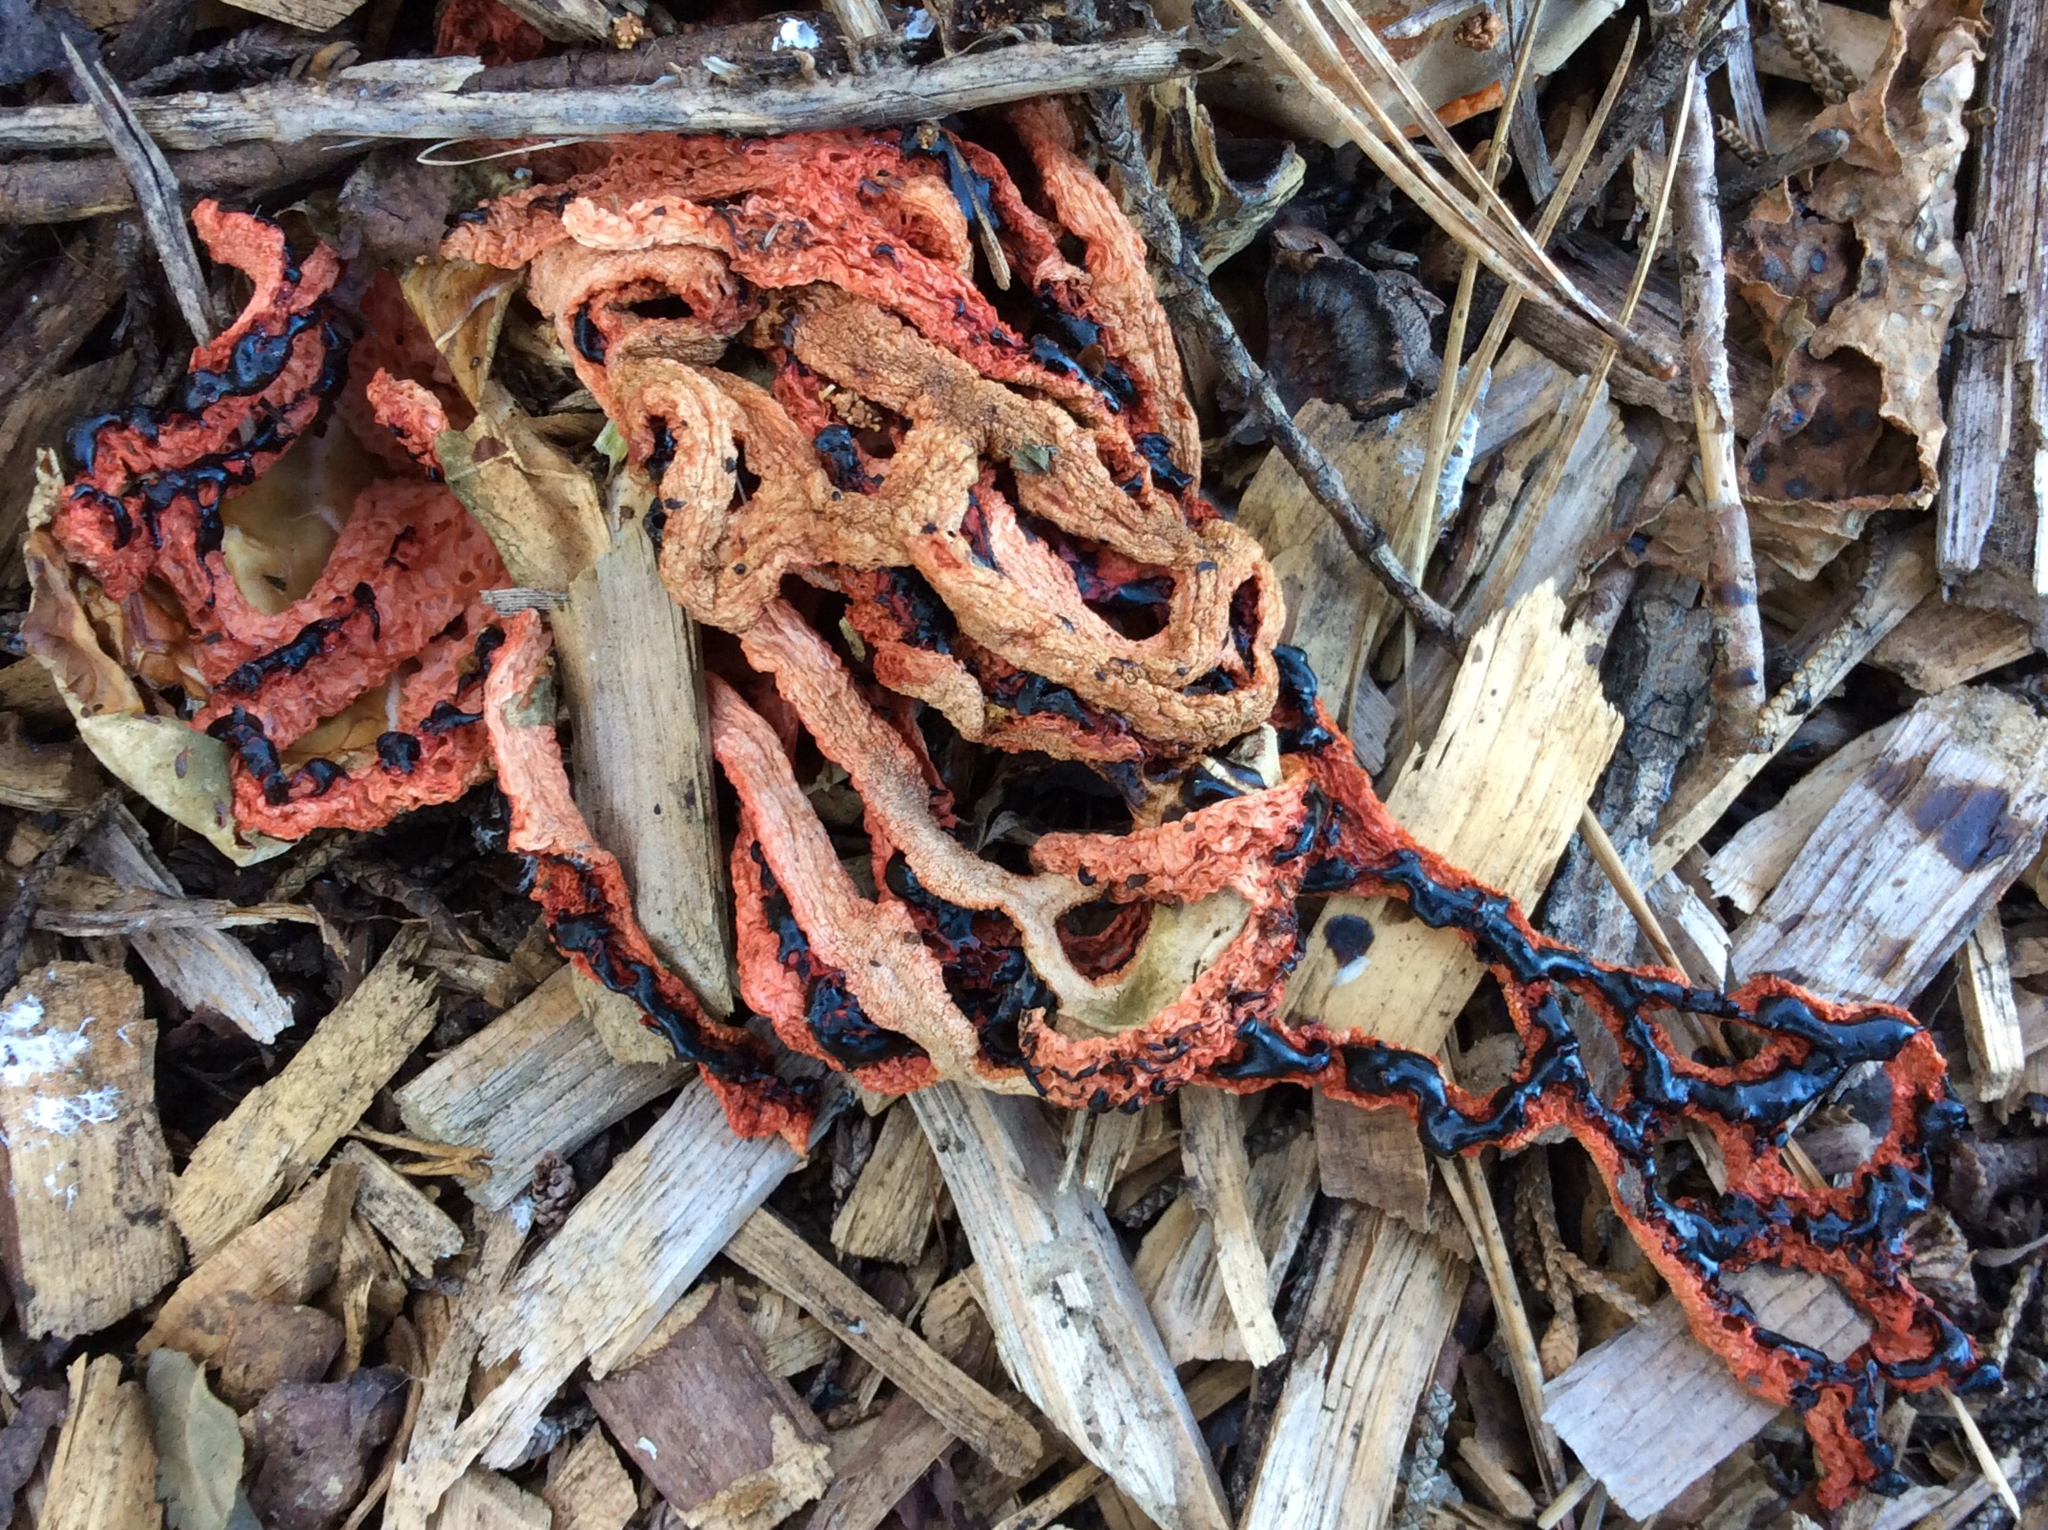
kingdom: Fungi
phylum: Basidiomycota
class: Agaricomycetes
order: Phallales
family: Phallaceae
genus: Clathrus
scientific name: Clathrus ruber
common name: Red cage
